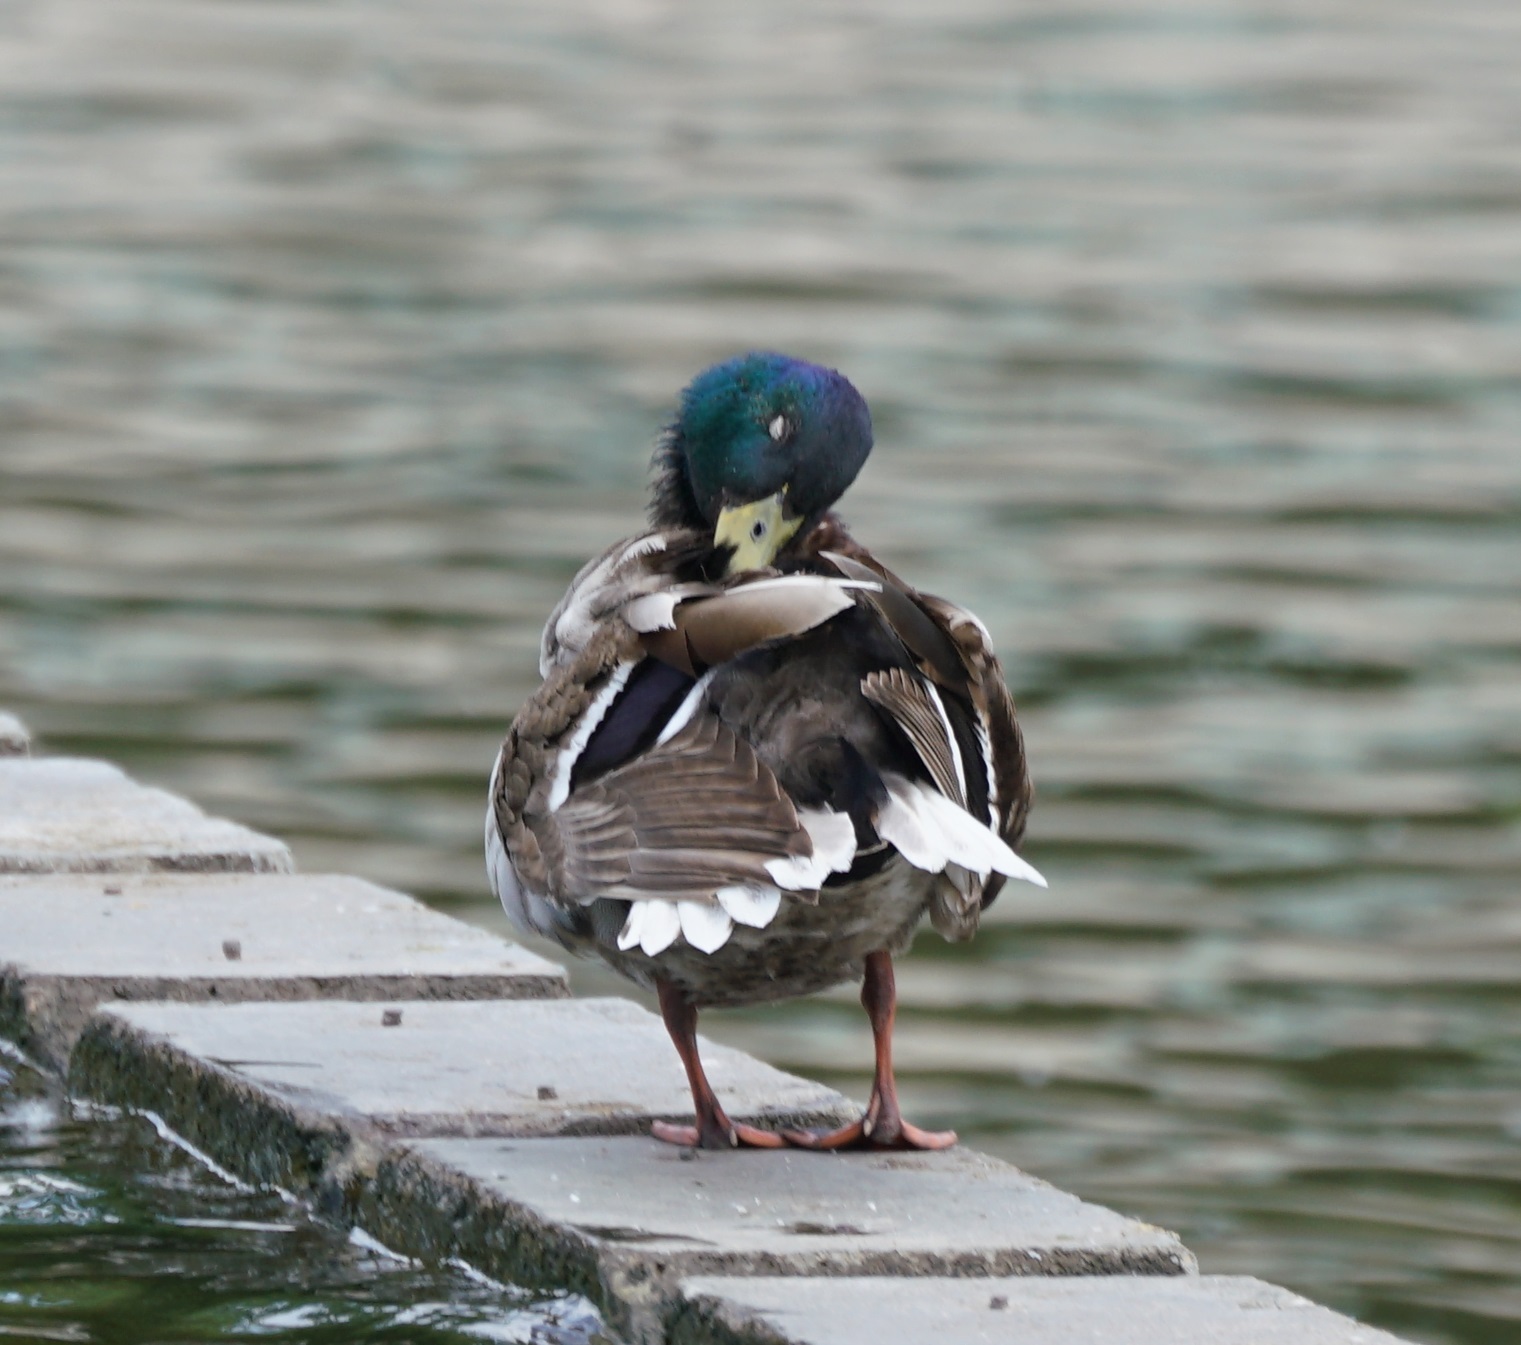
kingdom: Animalia
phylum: Chordata
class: Aves
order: Anseriformes
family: Anatidae
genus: Anas
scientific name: Anas platyrhynchos
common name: Mallard
